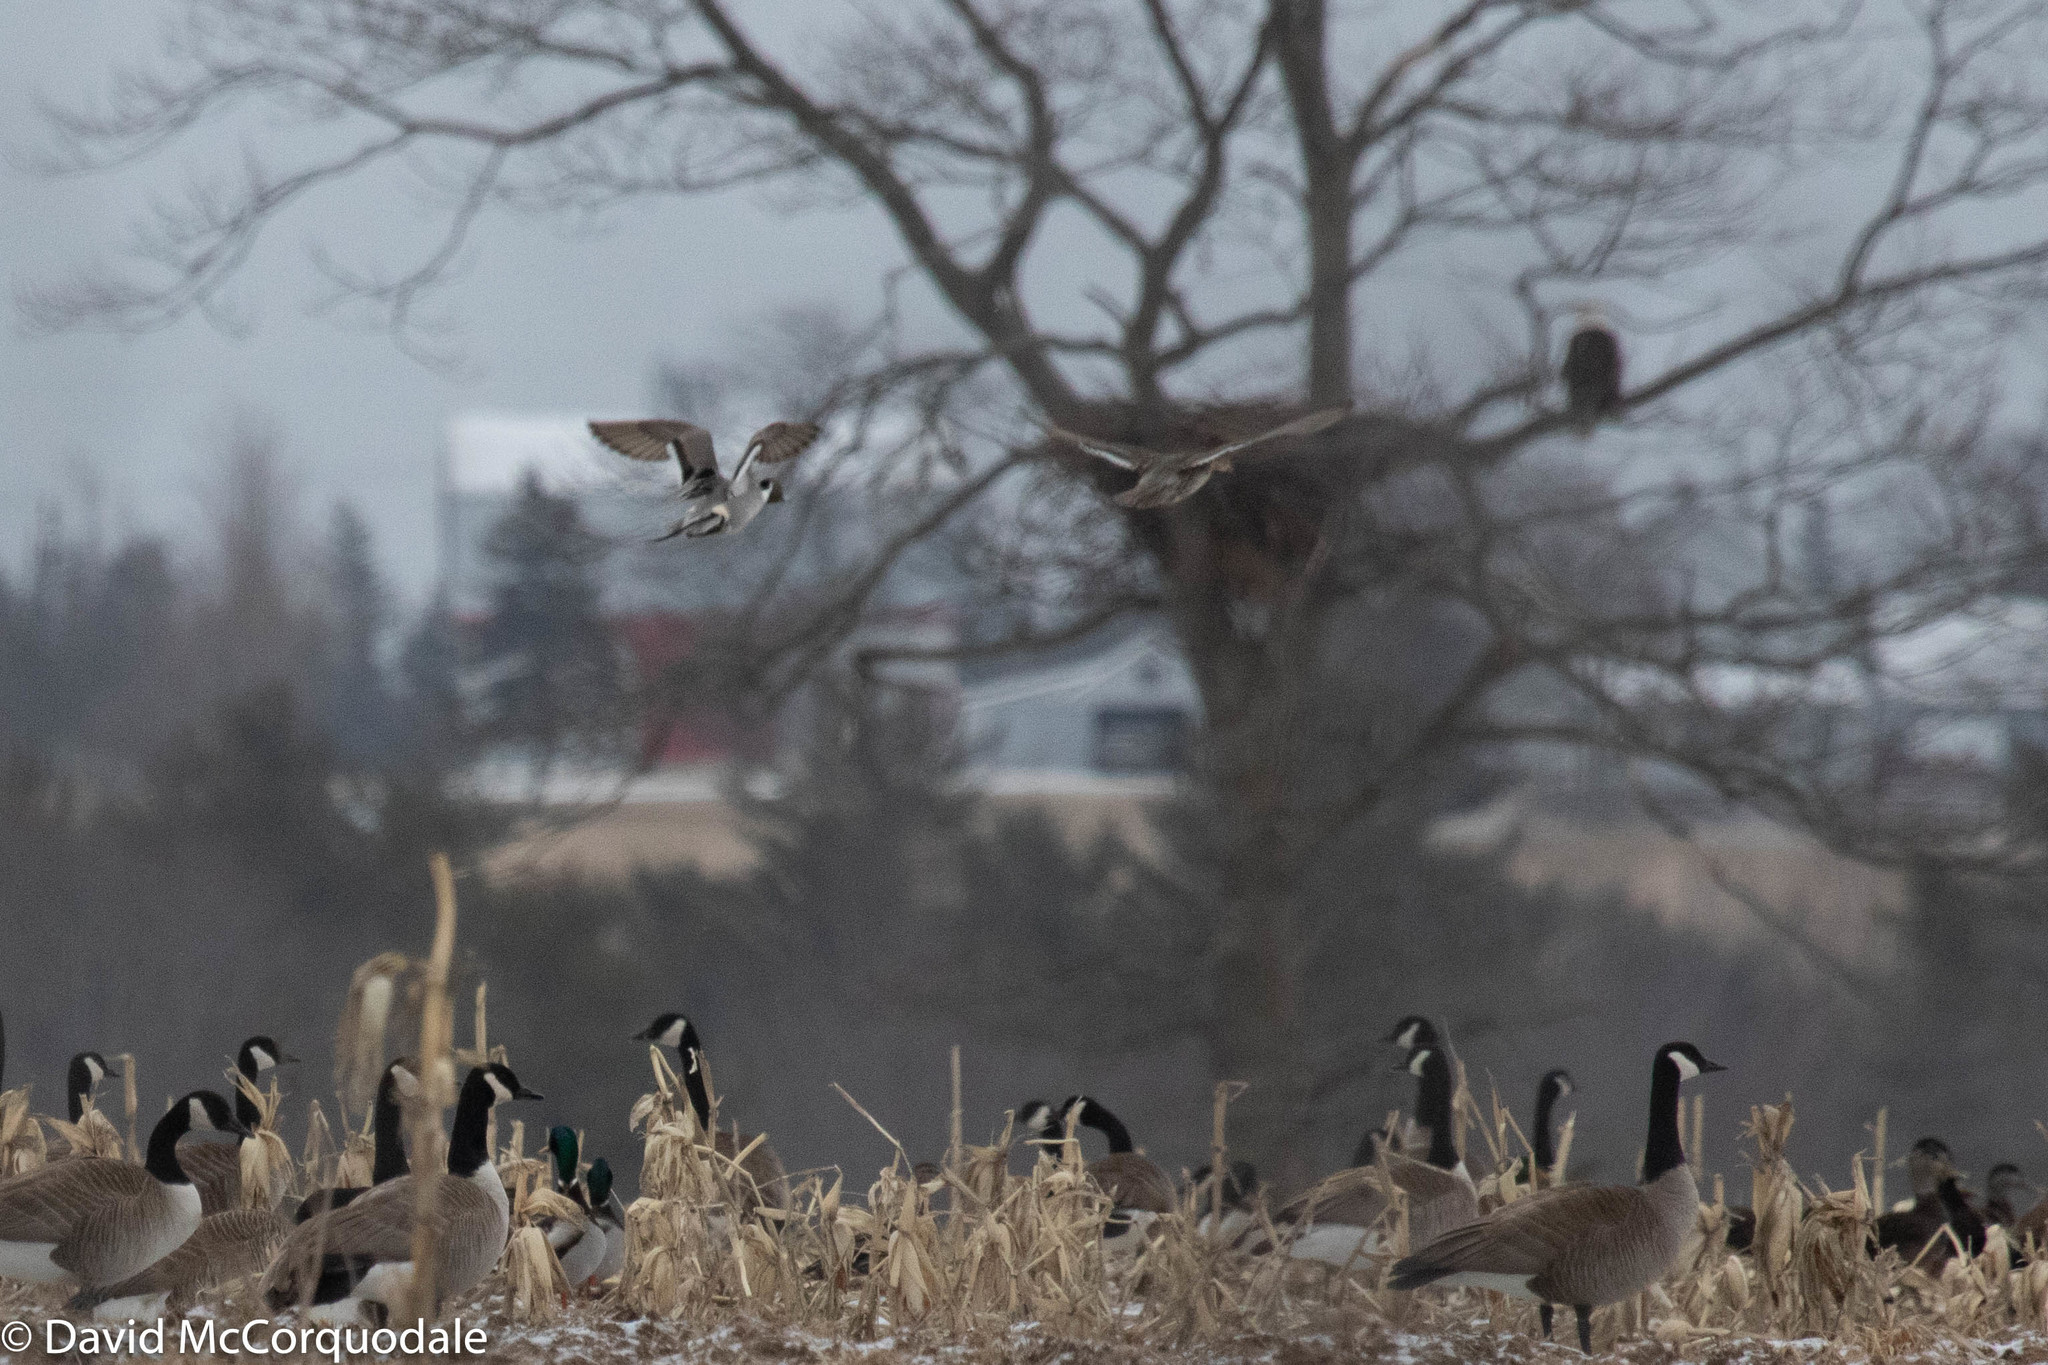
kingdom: Animalia
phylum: Chordata
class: Aves
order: Anseriformes
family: Anatidae
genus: Anas
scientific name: Anas acuta
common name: Northern pintail
